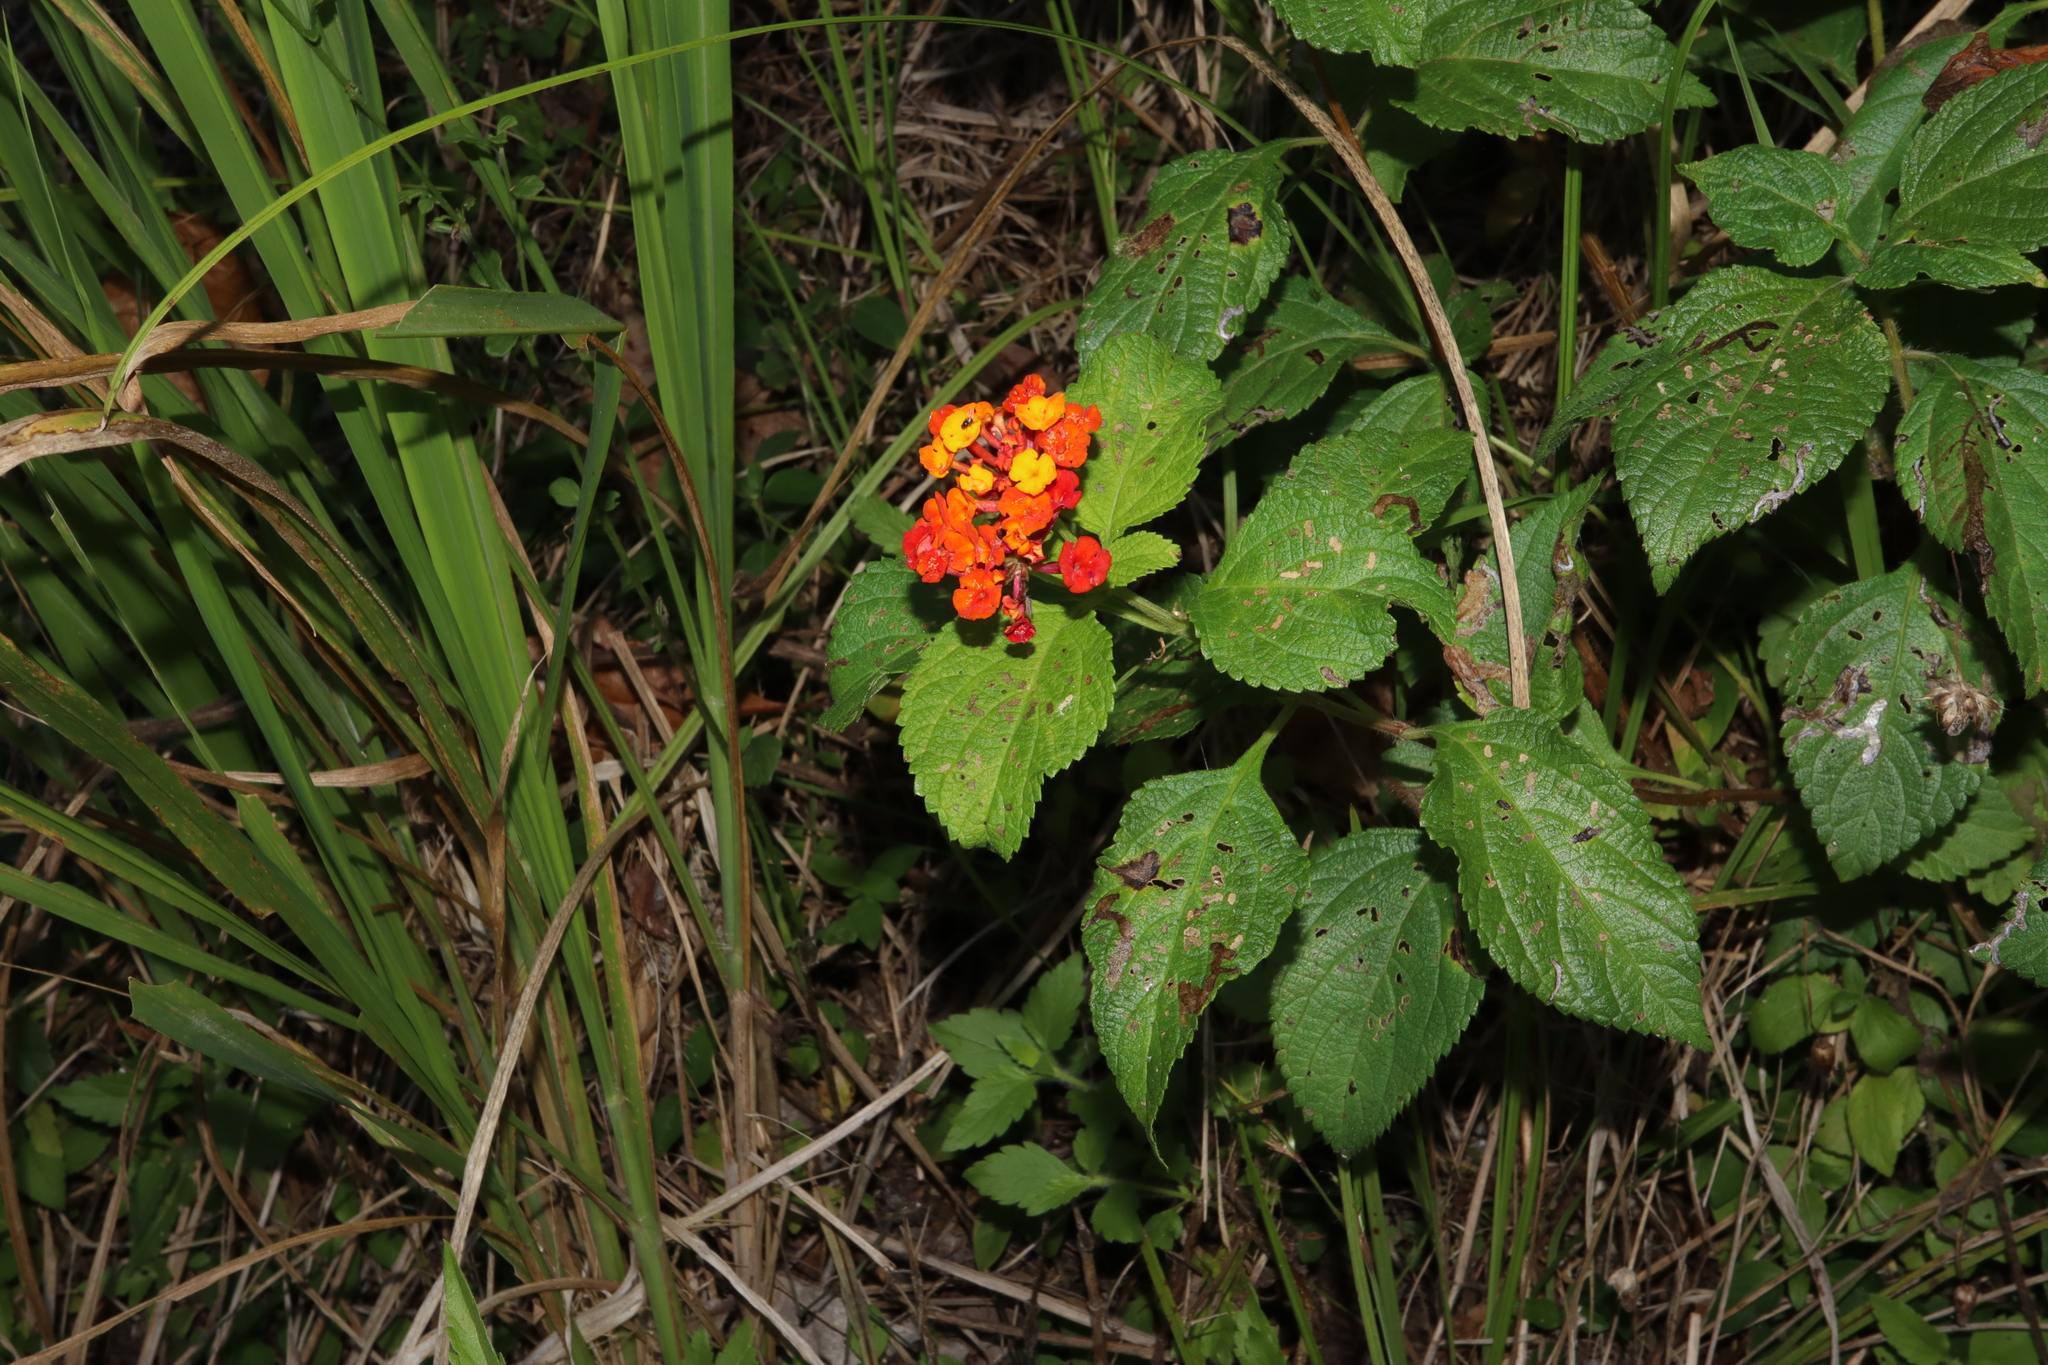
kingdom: Plantae
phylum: Tracheophyta
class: Magnoliopsida
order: Lamiales
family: Verbenaceae
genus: Lantana
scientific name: Lantana camara
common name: Lantana
